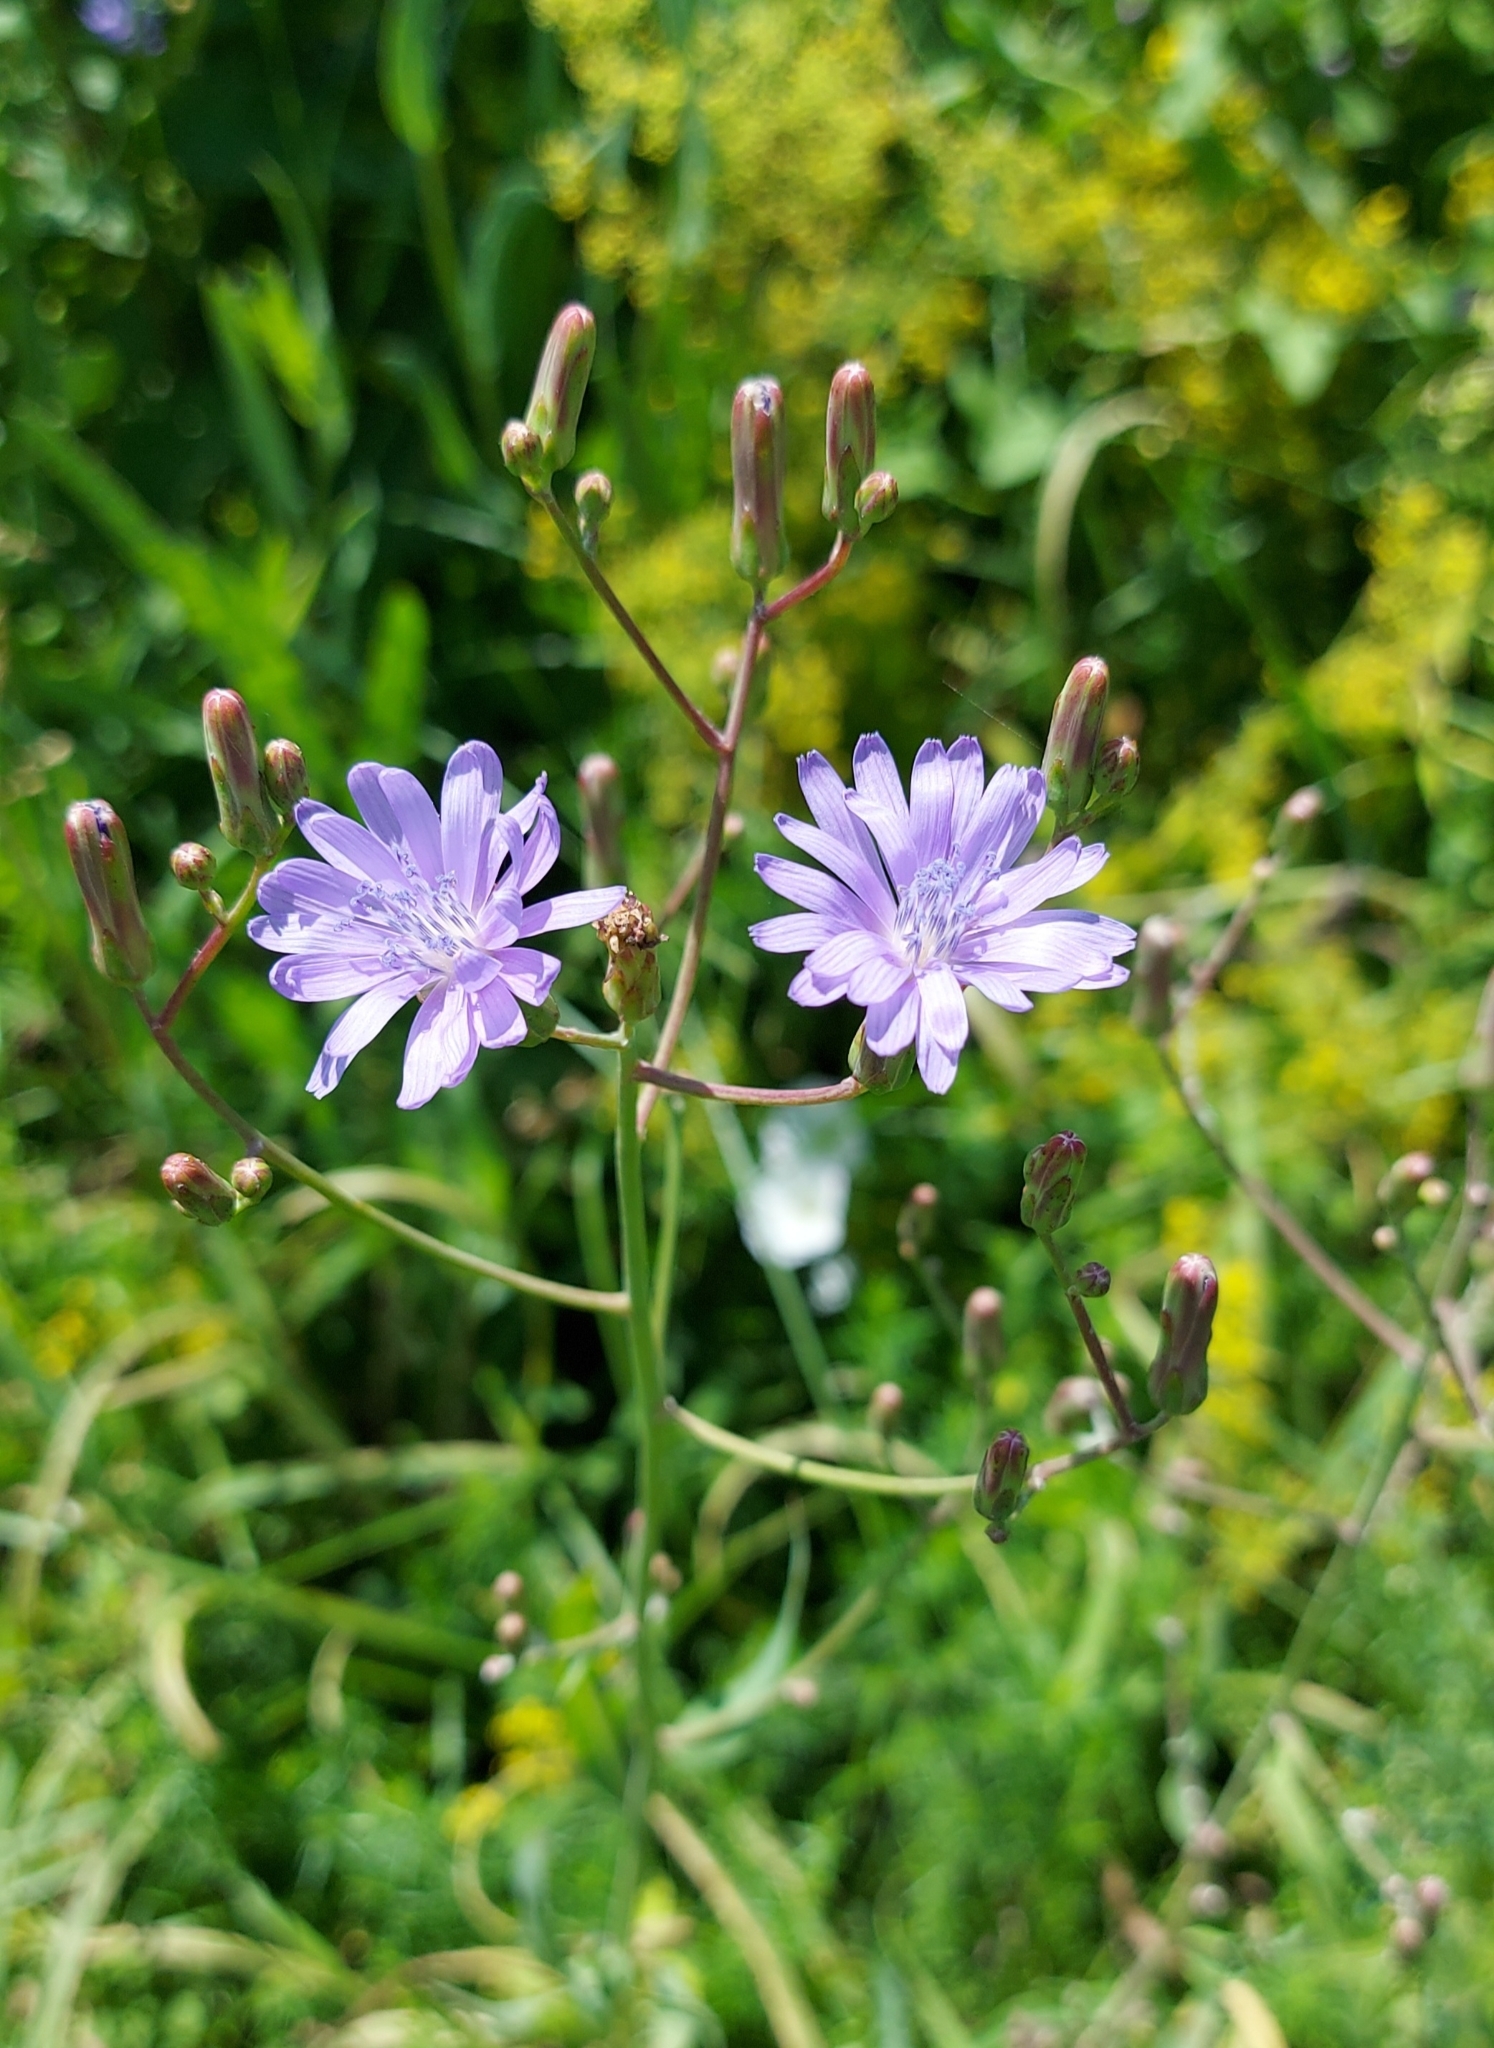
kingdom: Plantae
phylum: Tracheophyta
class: Magnoliopsida
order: Asterales
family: Asteraceae
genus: Lactuca
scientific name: Lactuca tatarica
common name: Blue lettuce
